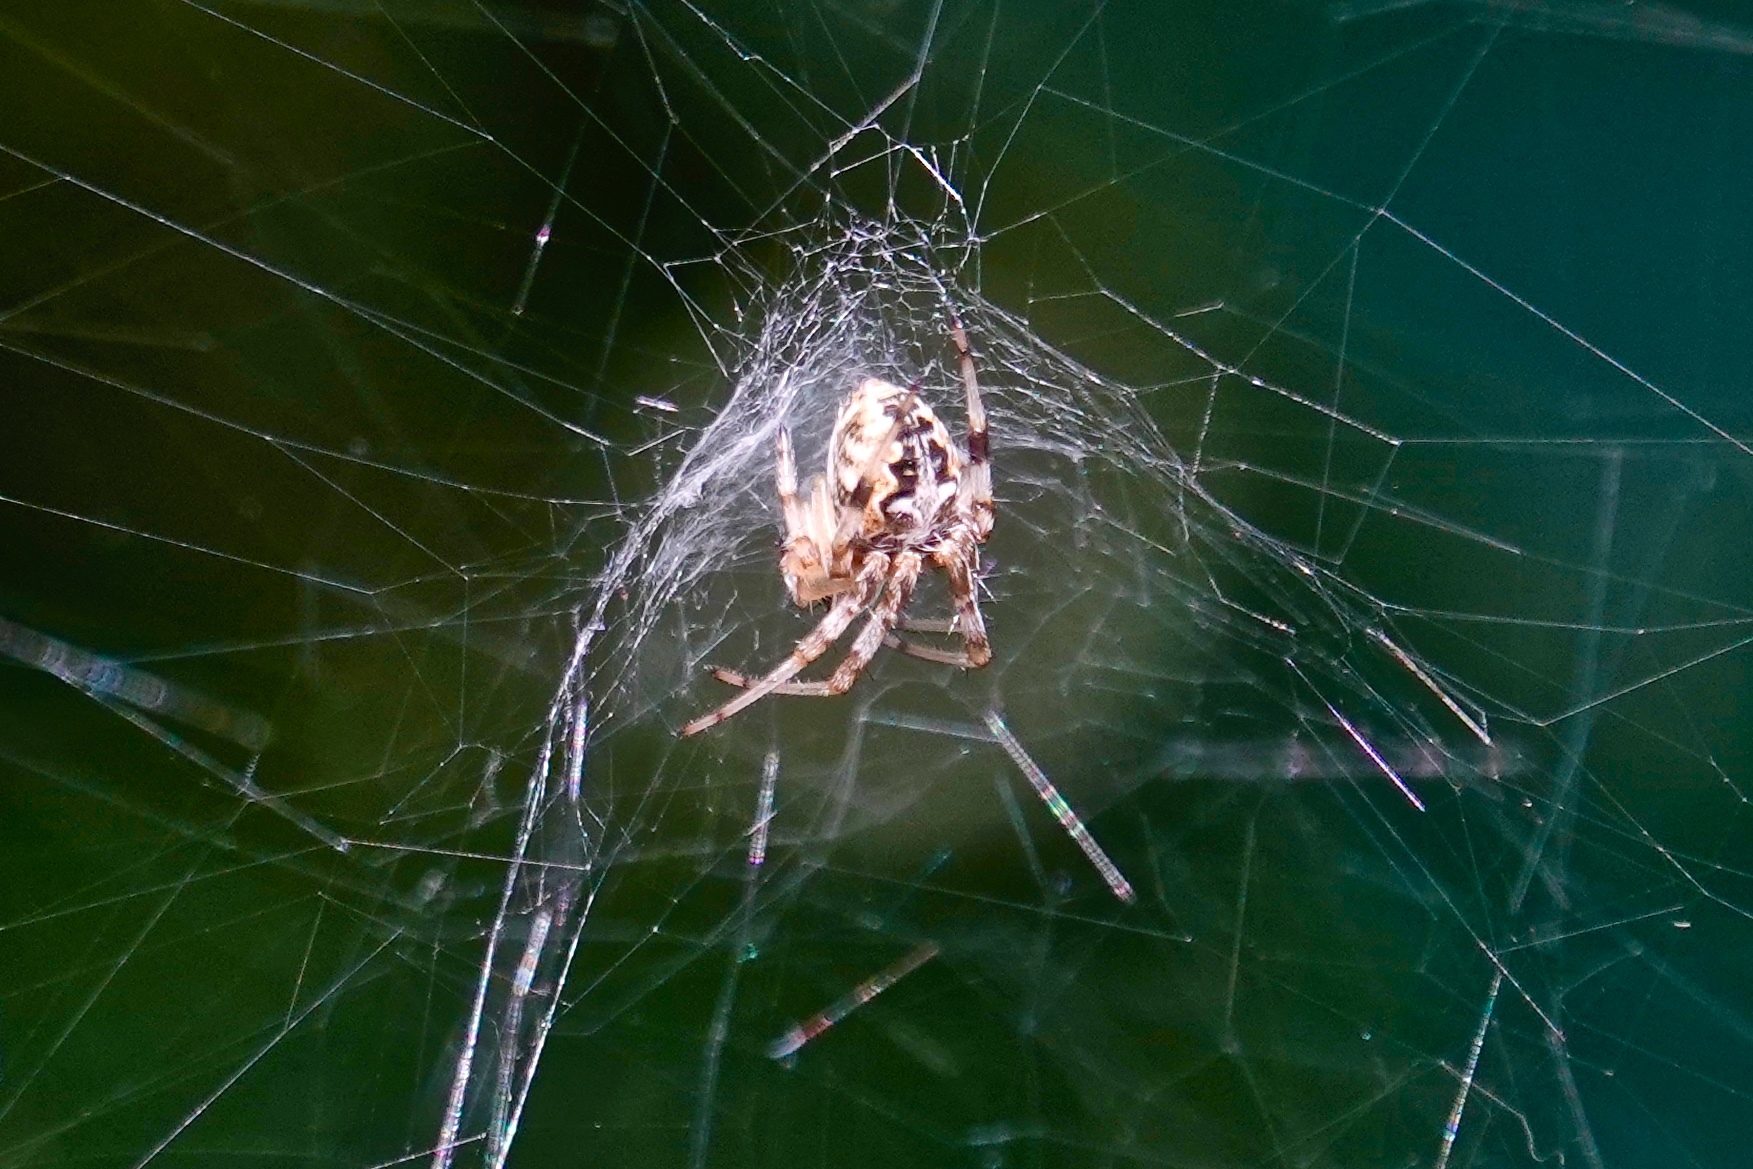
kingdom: Animalia
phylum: Arthropoda
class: Arachnida
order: Araneae
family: Araneidae
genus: Metepeira
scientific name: Metepeira labyrinthea
